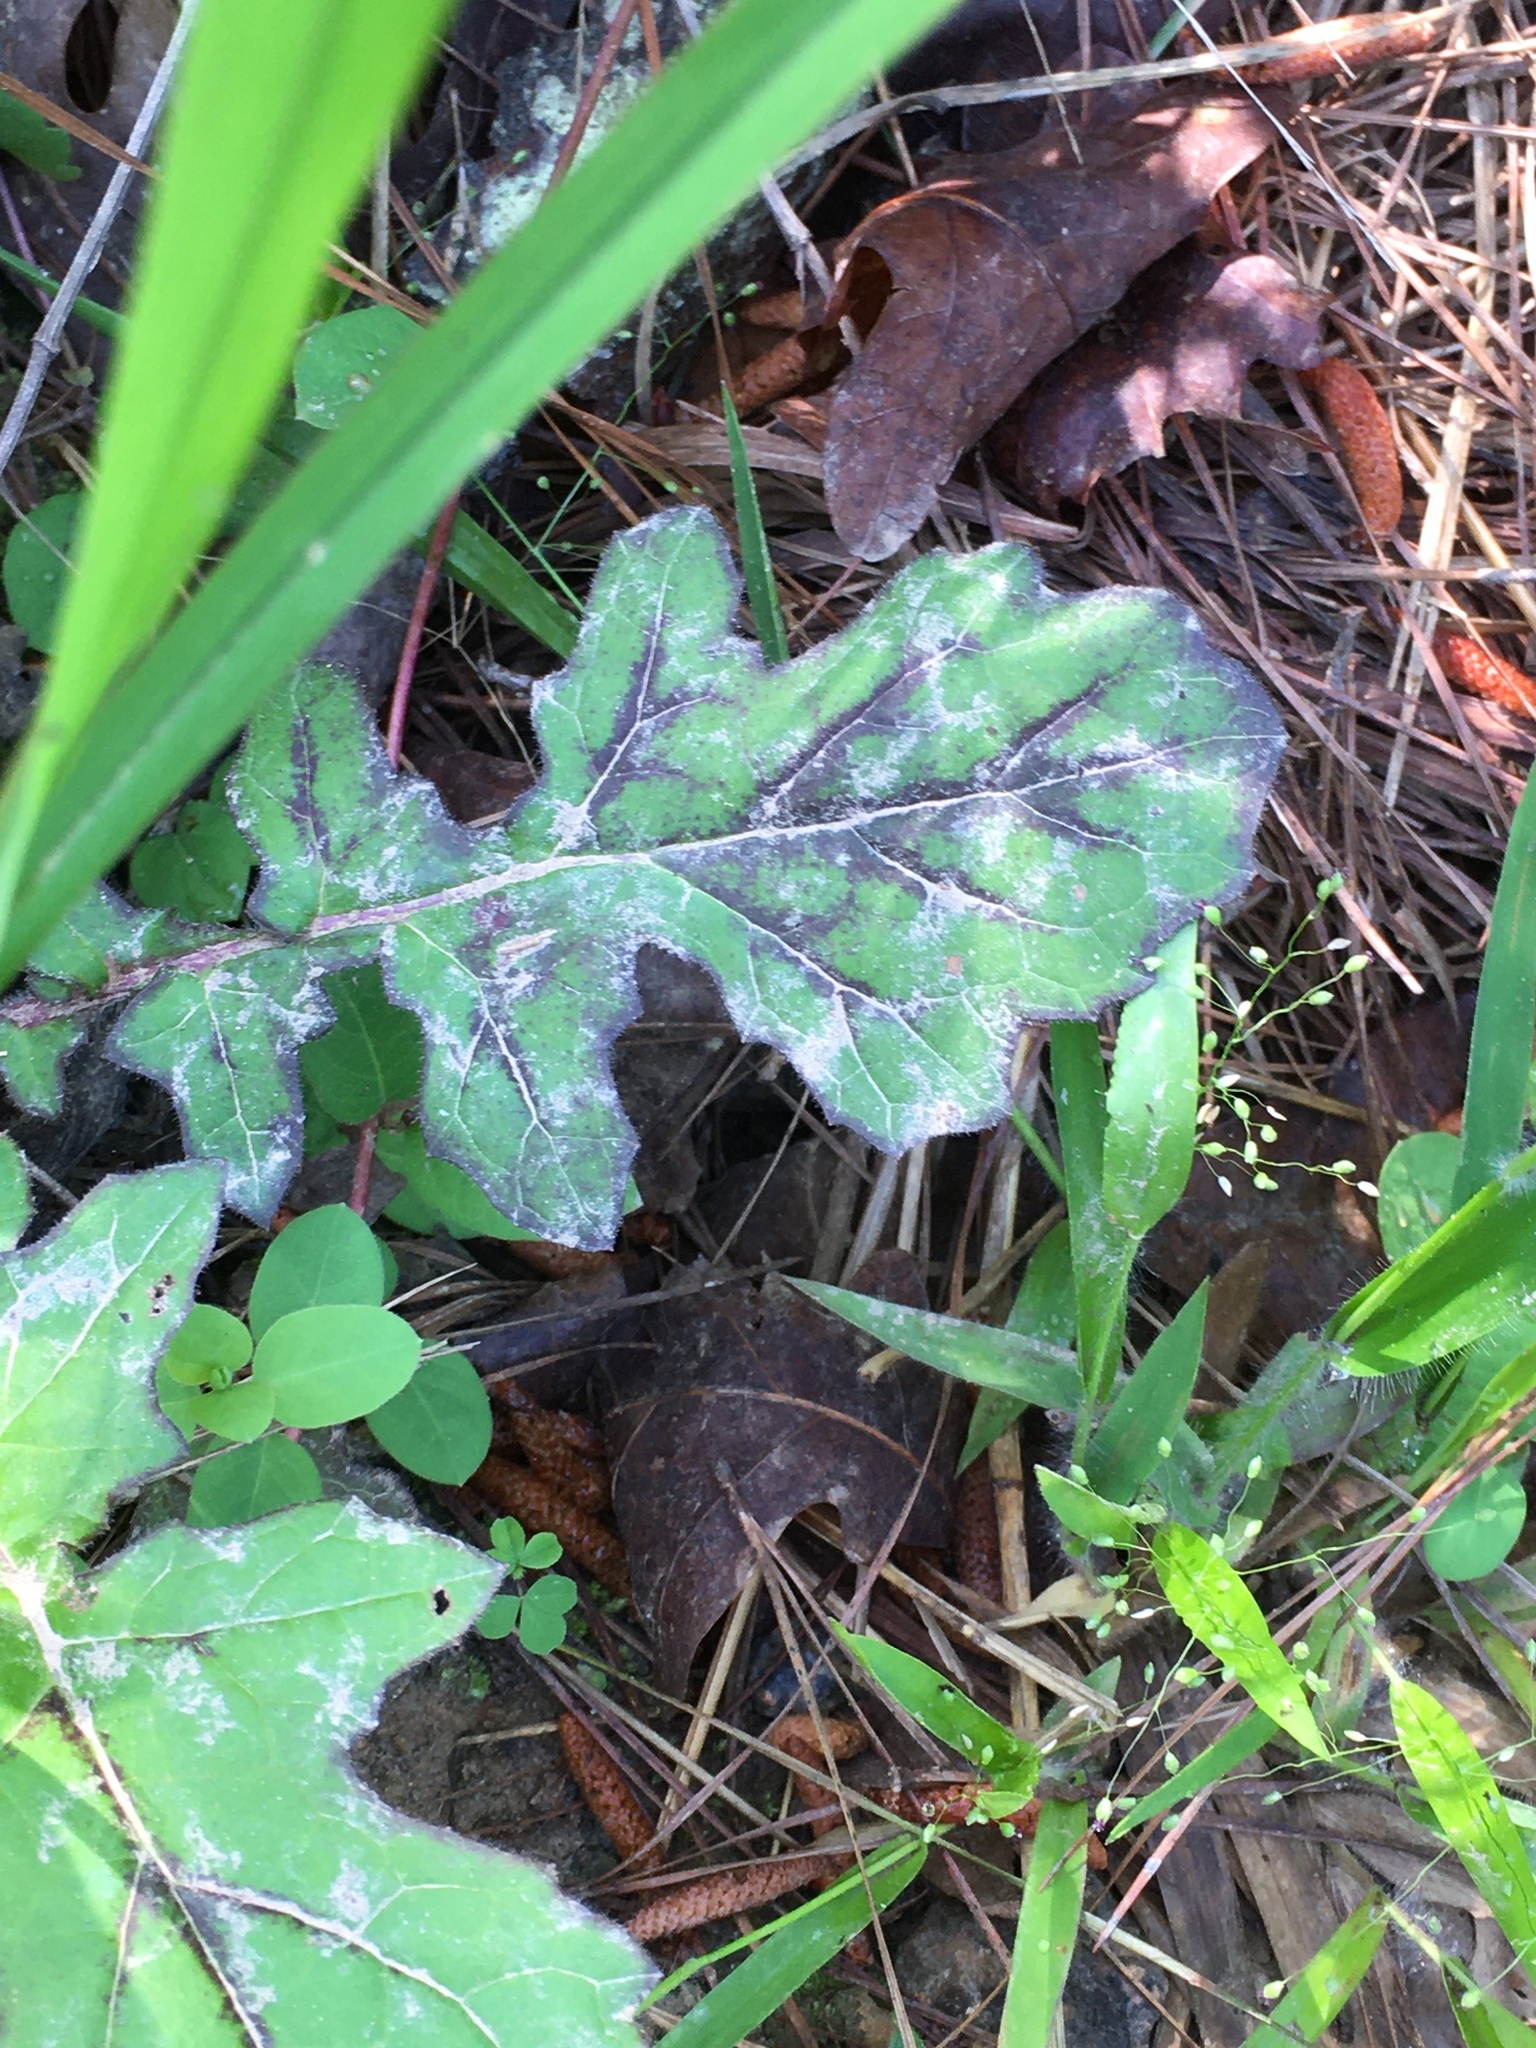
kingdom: Plantae
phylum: Tracheophyta
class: Magnoliopsida
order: Lamiales
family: Lamiaceae
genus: Salvia
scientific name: Salvia lyrata
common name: Cancerweed
